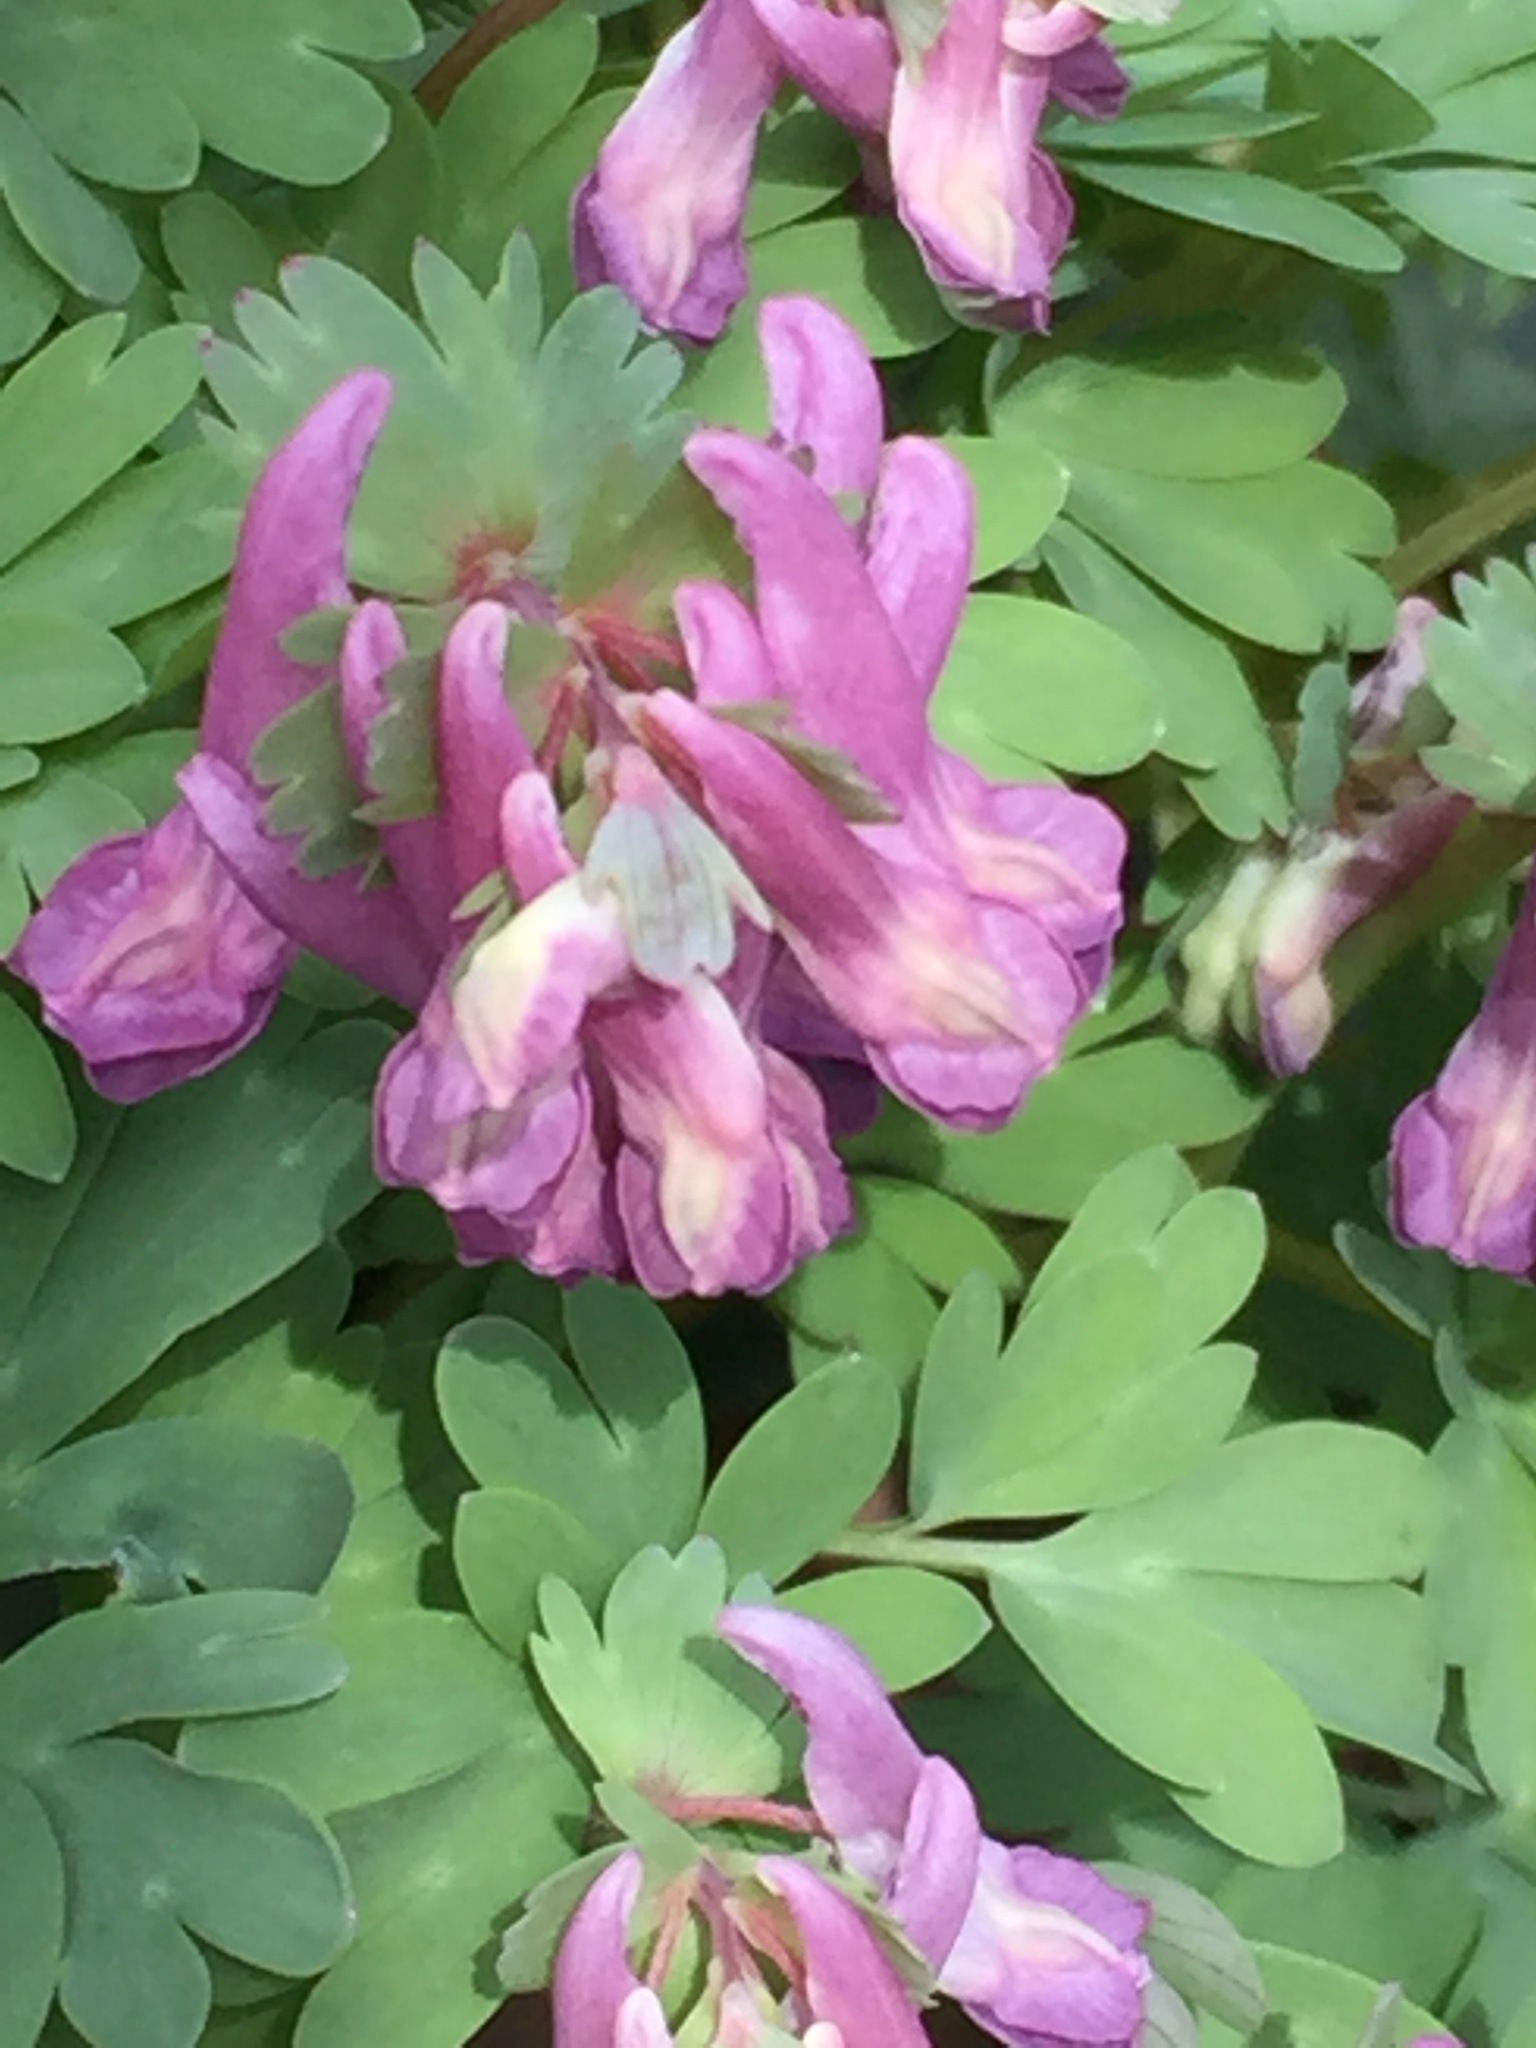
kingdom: Plantae
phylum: Tracheophyta
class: Magnoliopsida
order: Ranunculales
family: Papaveraceae
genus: Corydalis
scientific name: Corydalis solida
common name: Bird-in-a-bush
